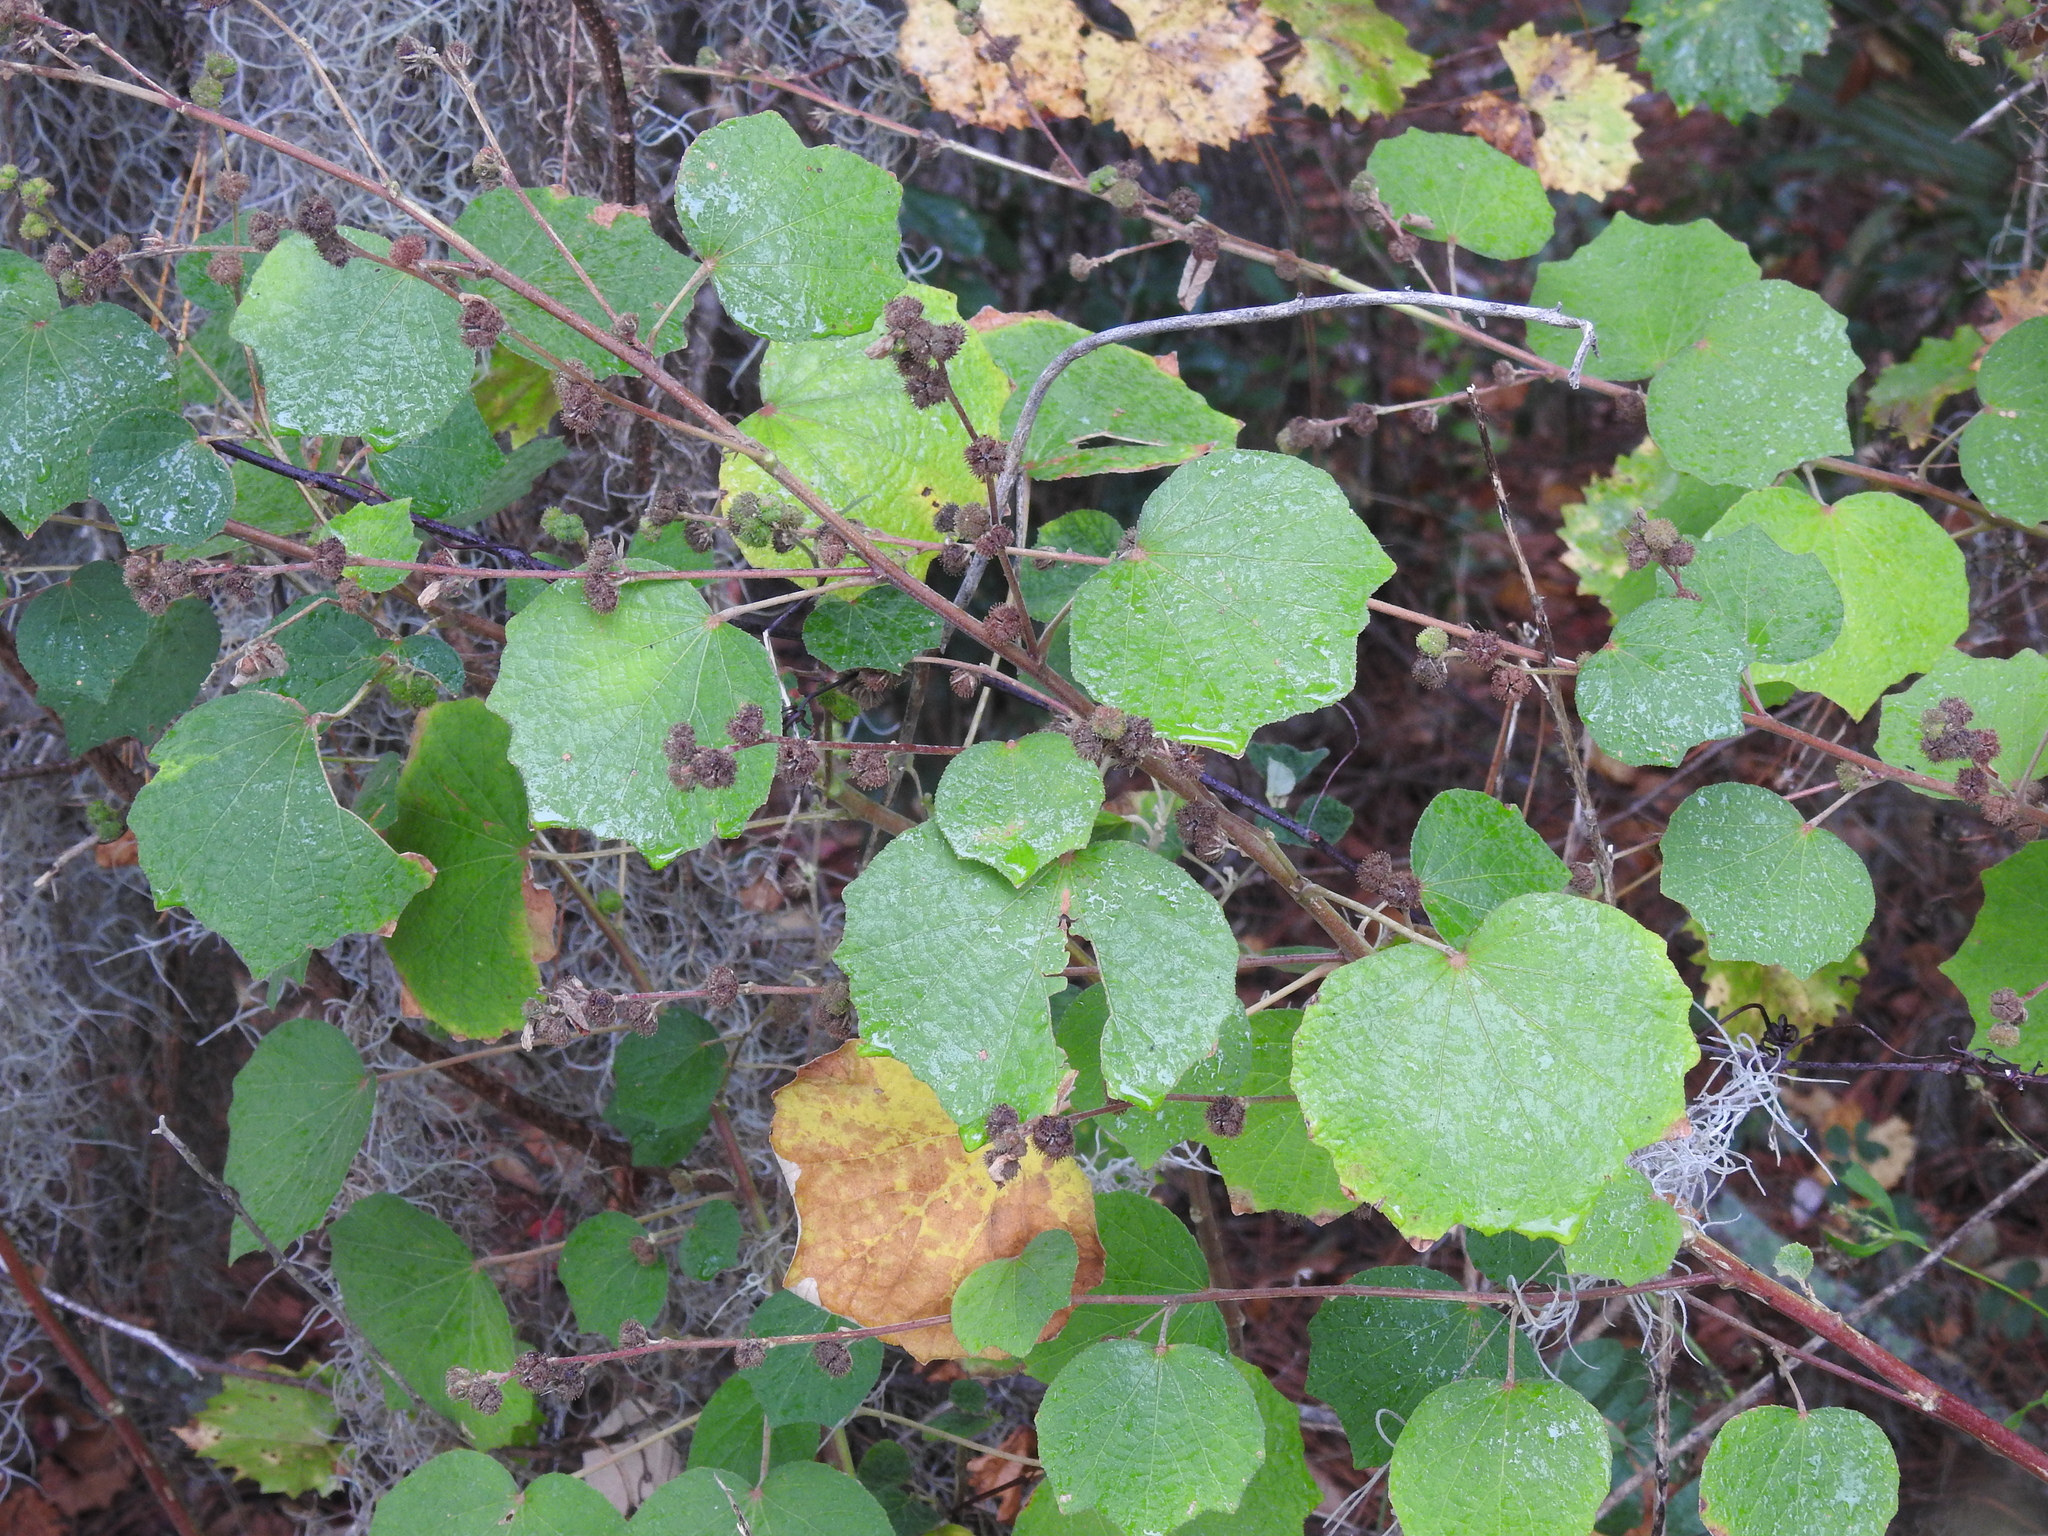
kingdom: Plantae
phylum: Tracheophyta
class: Magnoliopsida
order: Malvales
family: Malvaceae
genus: Urena
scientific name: Urena lobata
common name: Caesarweed
